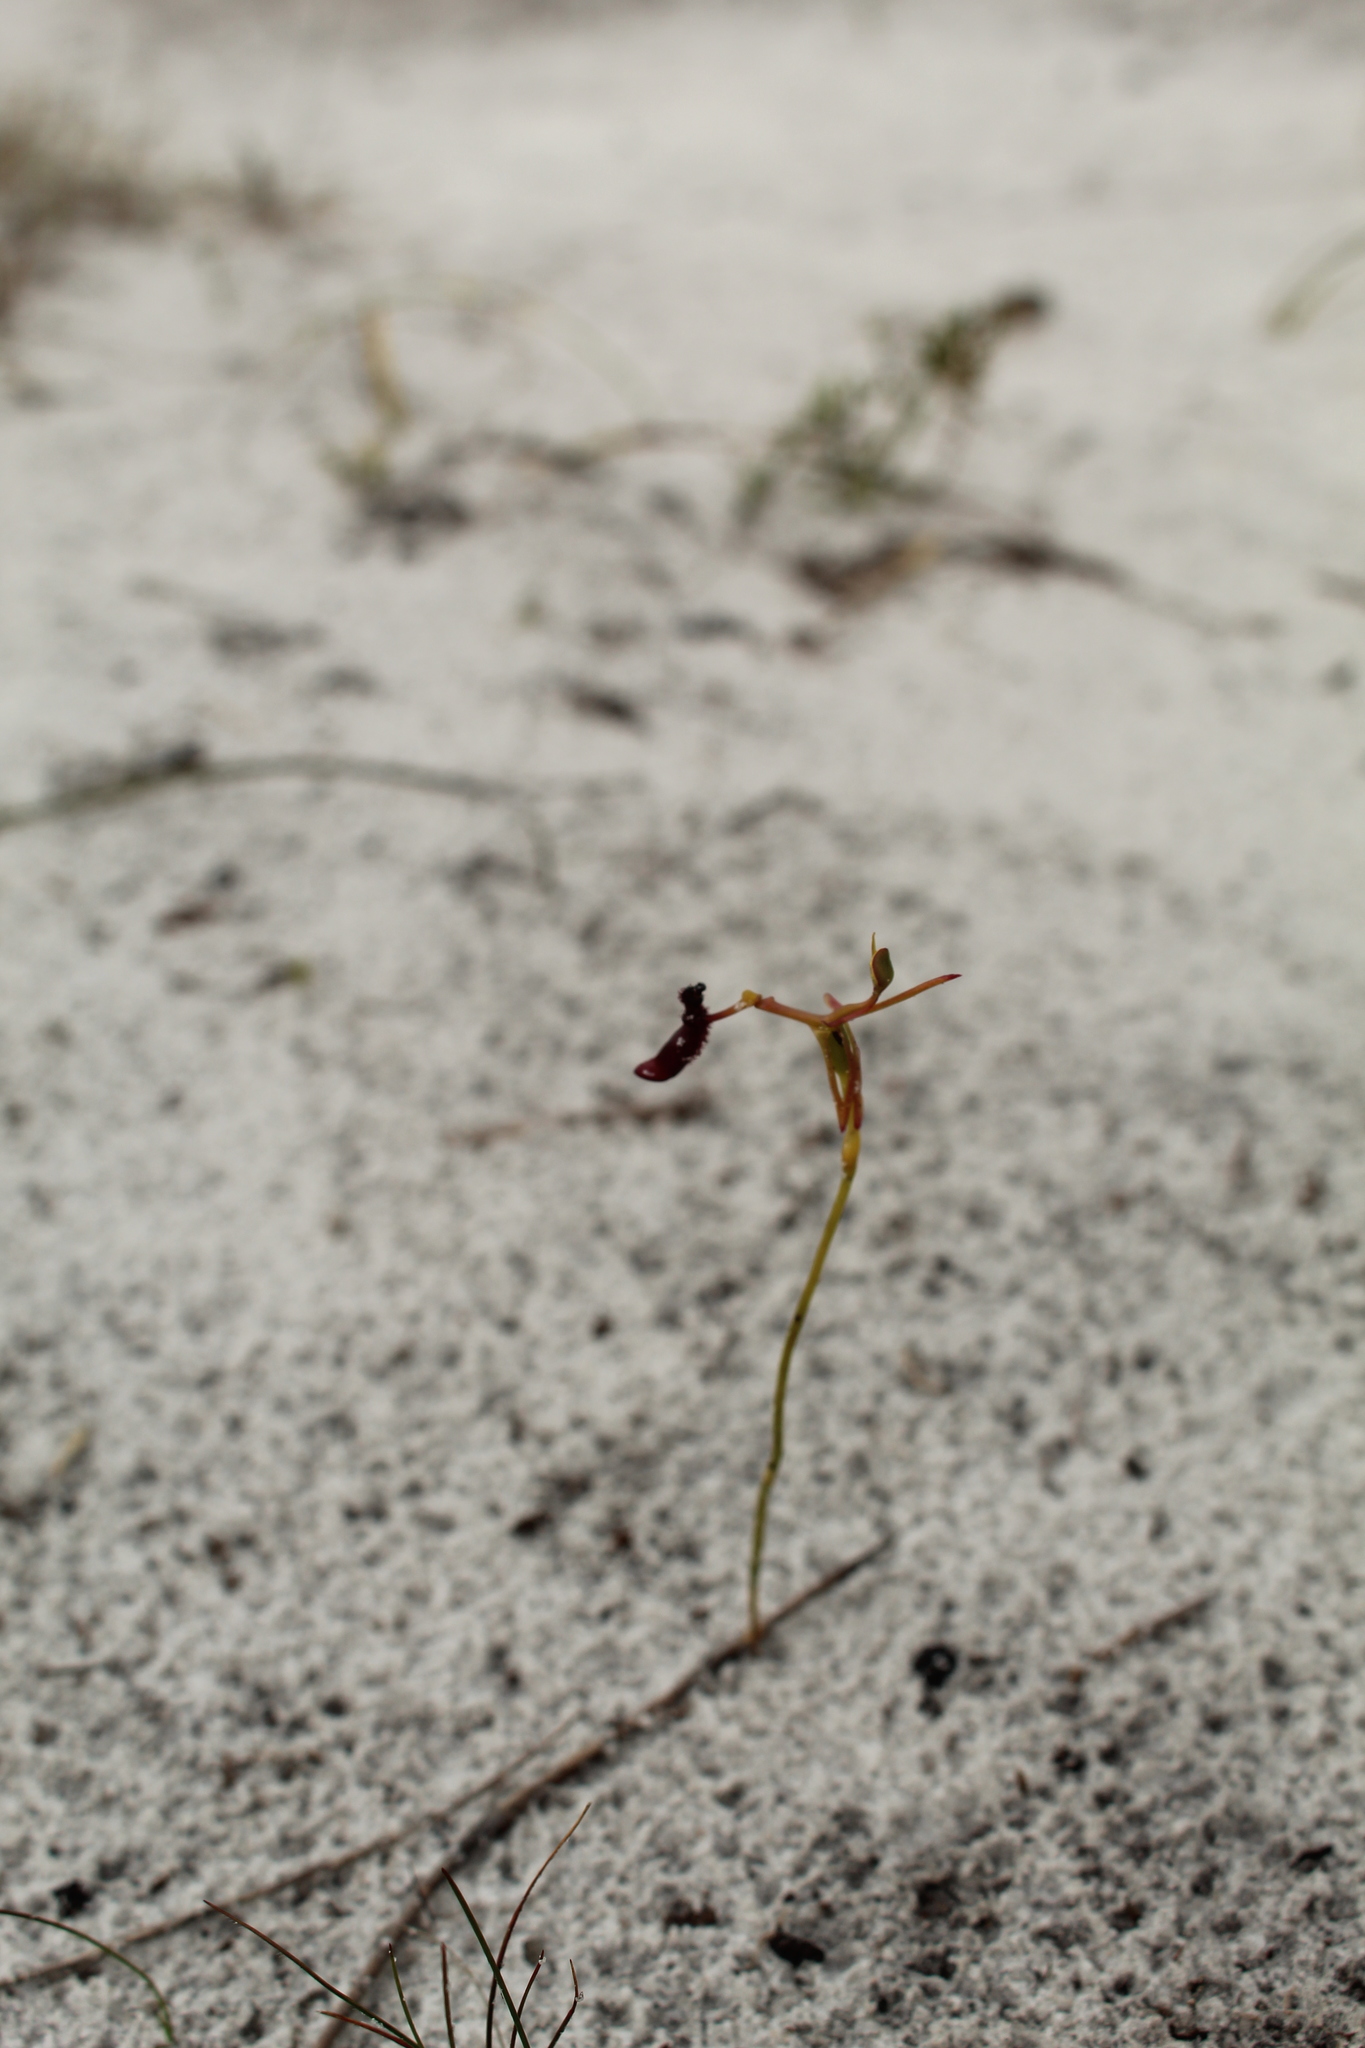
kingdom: Plantae
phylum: Tracheophyta
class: Liliopsida
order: Asparagales
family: Orchidaceae
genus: Drakaea
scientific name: Drakaea thynniphila
